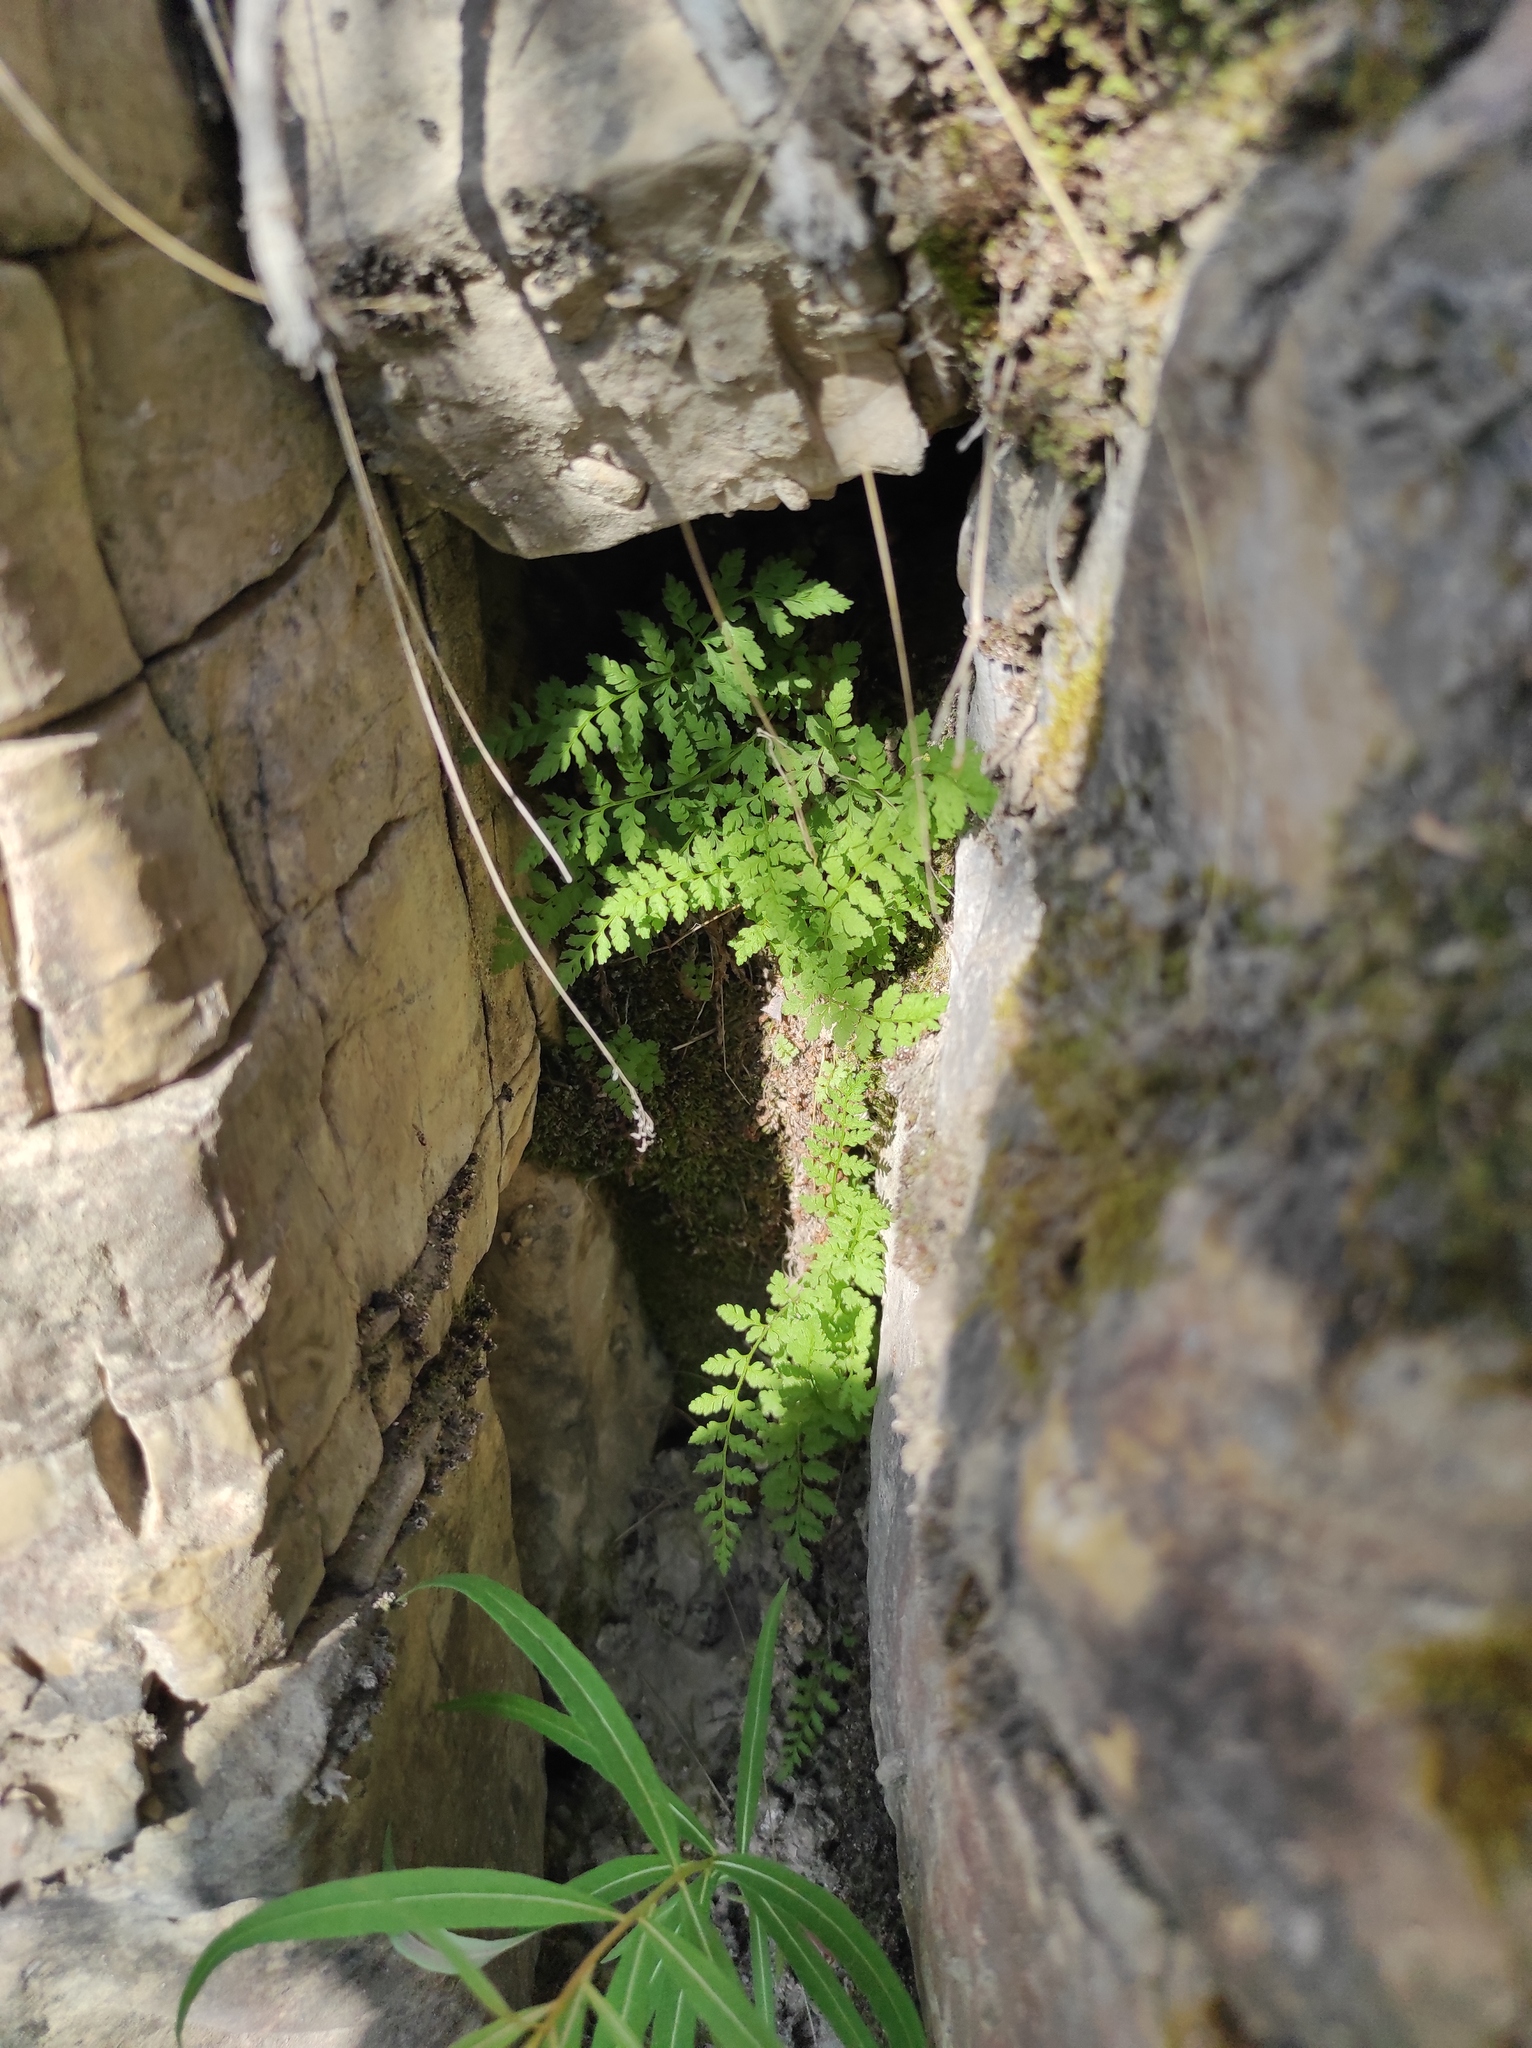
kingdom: Plantae
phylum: Tracheophyta
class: Magnoliopsida
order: Myrtales
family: Onagraceae
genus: Chamaenerion
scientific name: Chamaenerion angustifolium
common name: Fireweed
